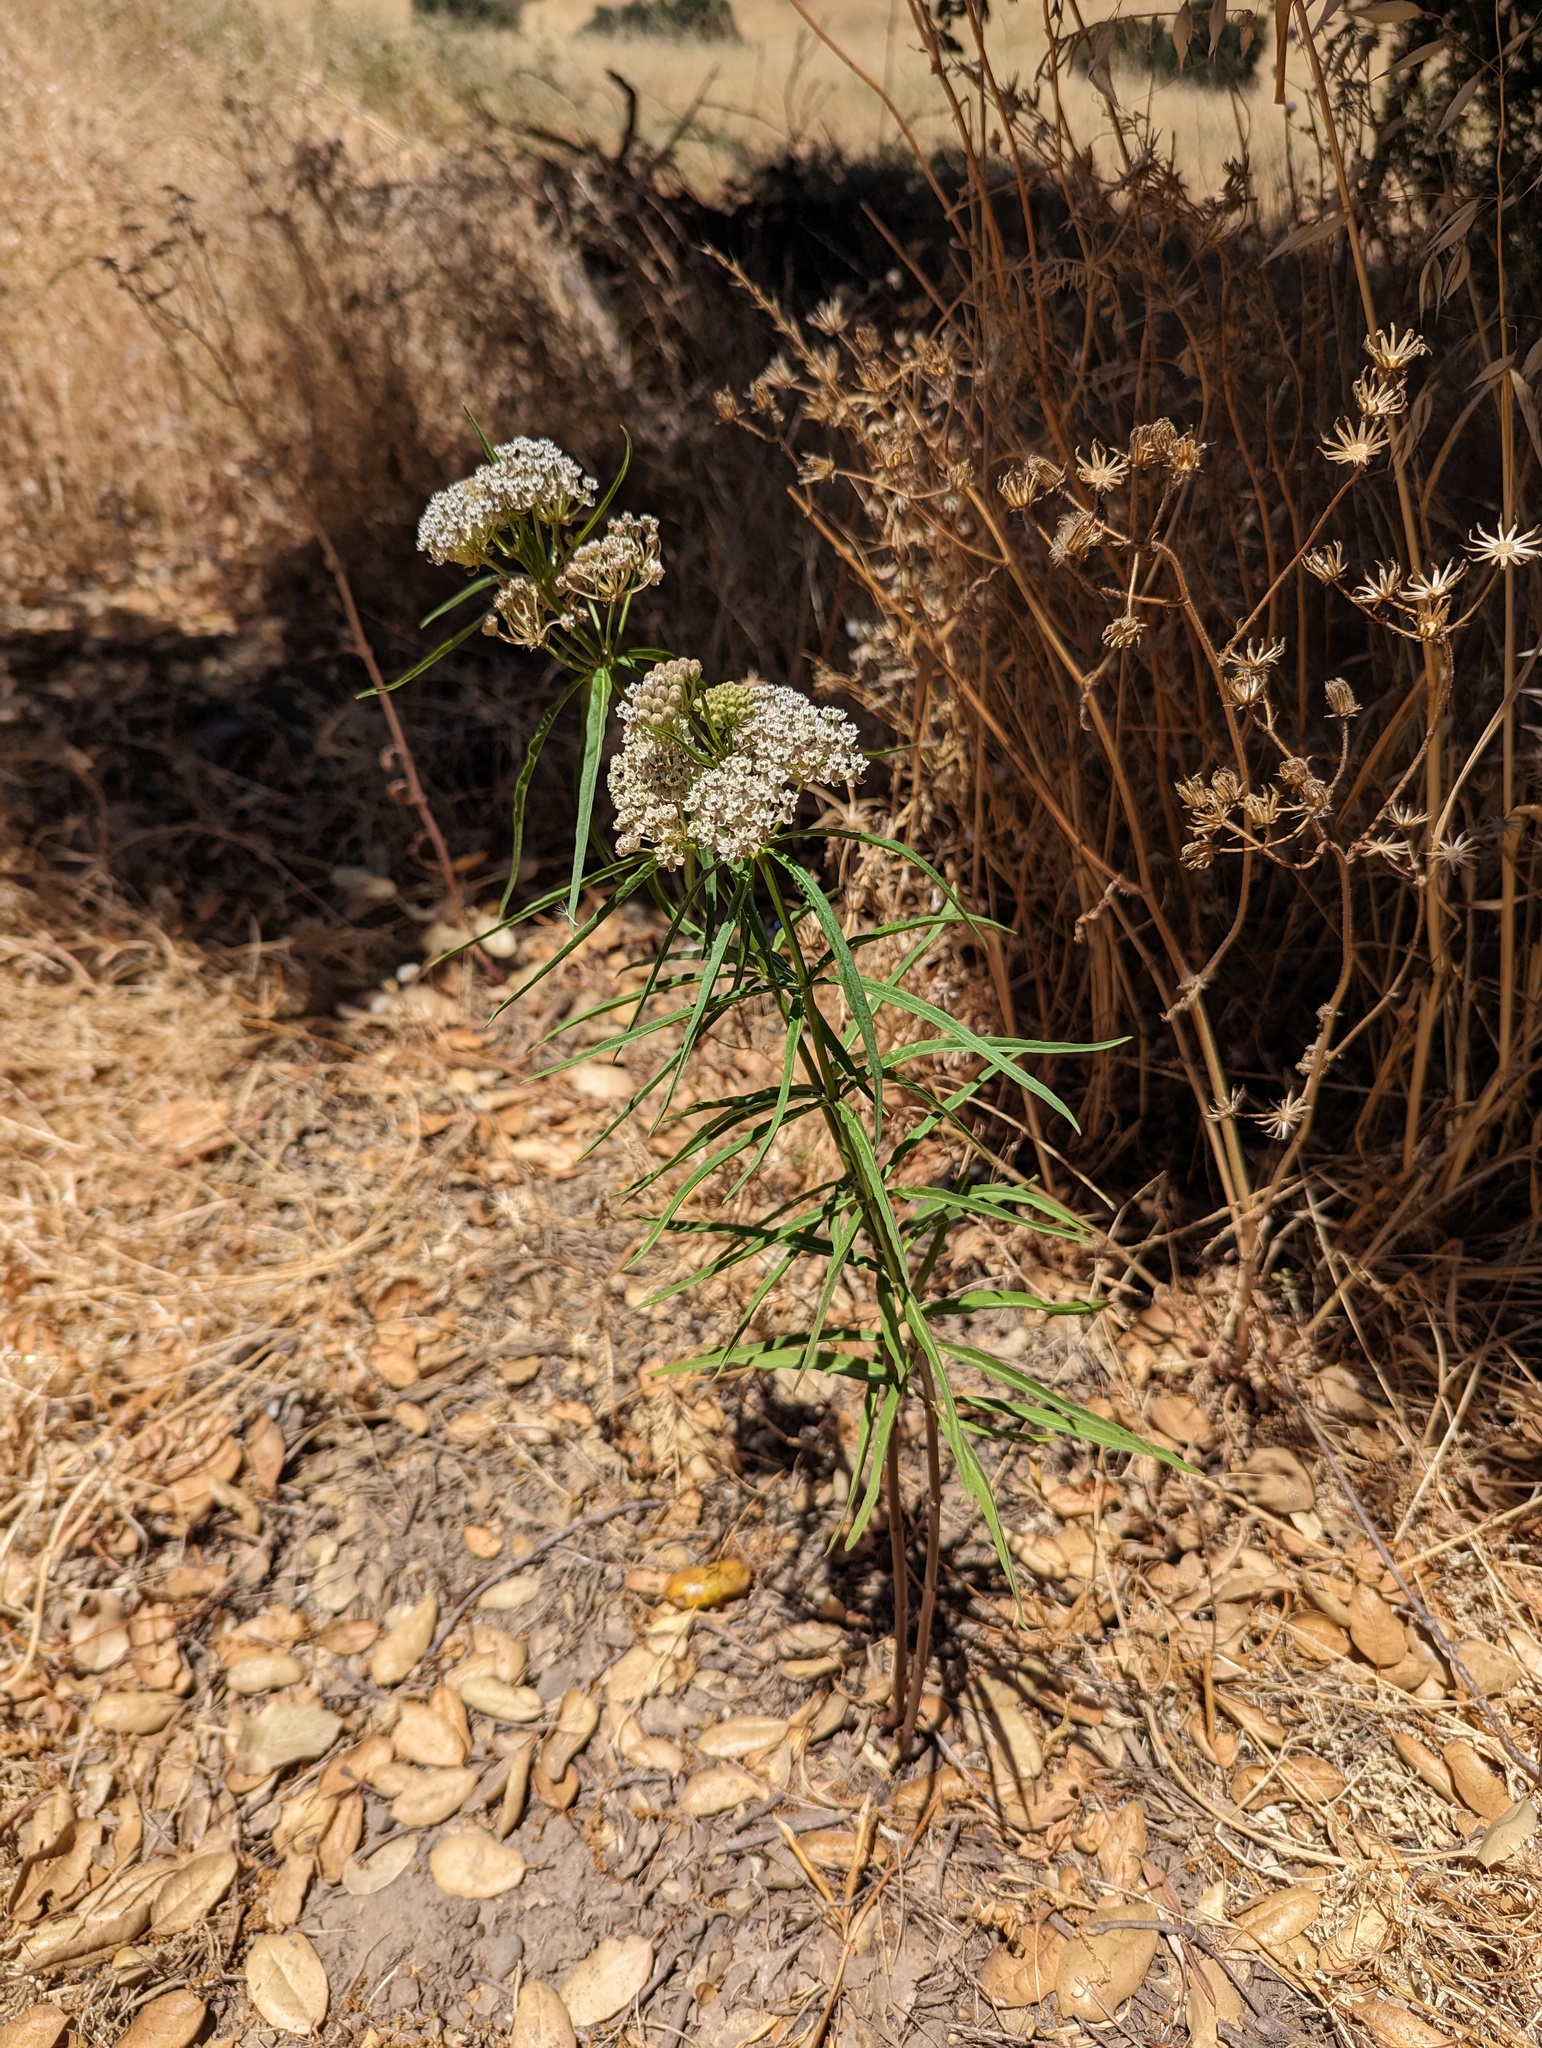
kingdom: Plantae
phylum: Tracheophyta
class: Magnoliopsida
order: Gentianales
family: Apocynaceae
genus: Asclepias
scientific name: Asclepias fascicularis
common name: Mexican milkweed
